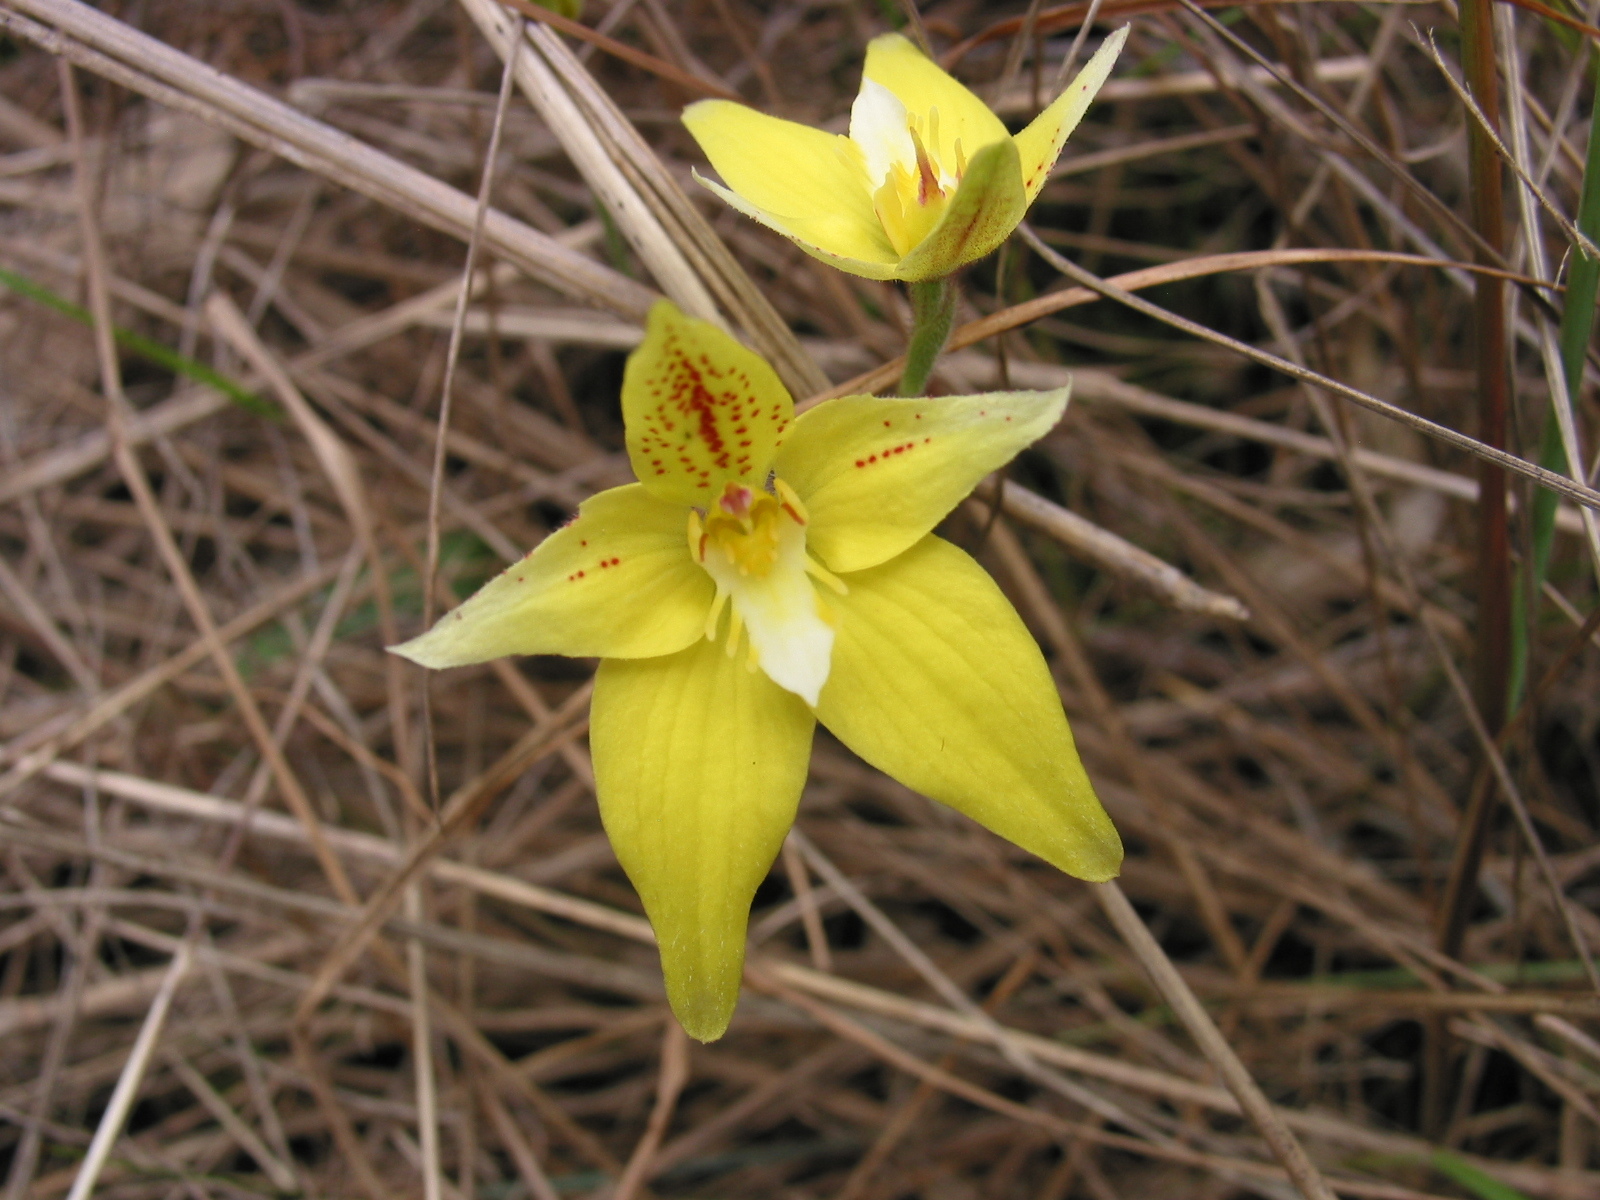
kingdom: Plantae
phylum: Tracheophyta
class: Liliopsida
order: Asparagales
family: Orchidaceae
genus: Caladenia
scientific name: Caladenia flava
